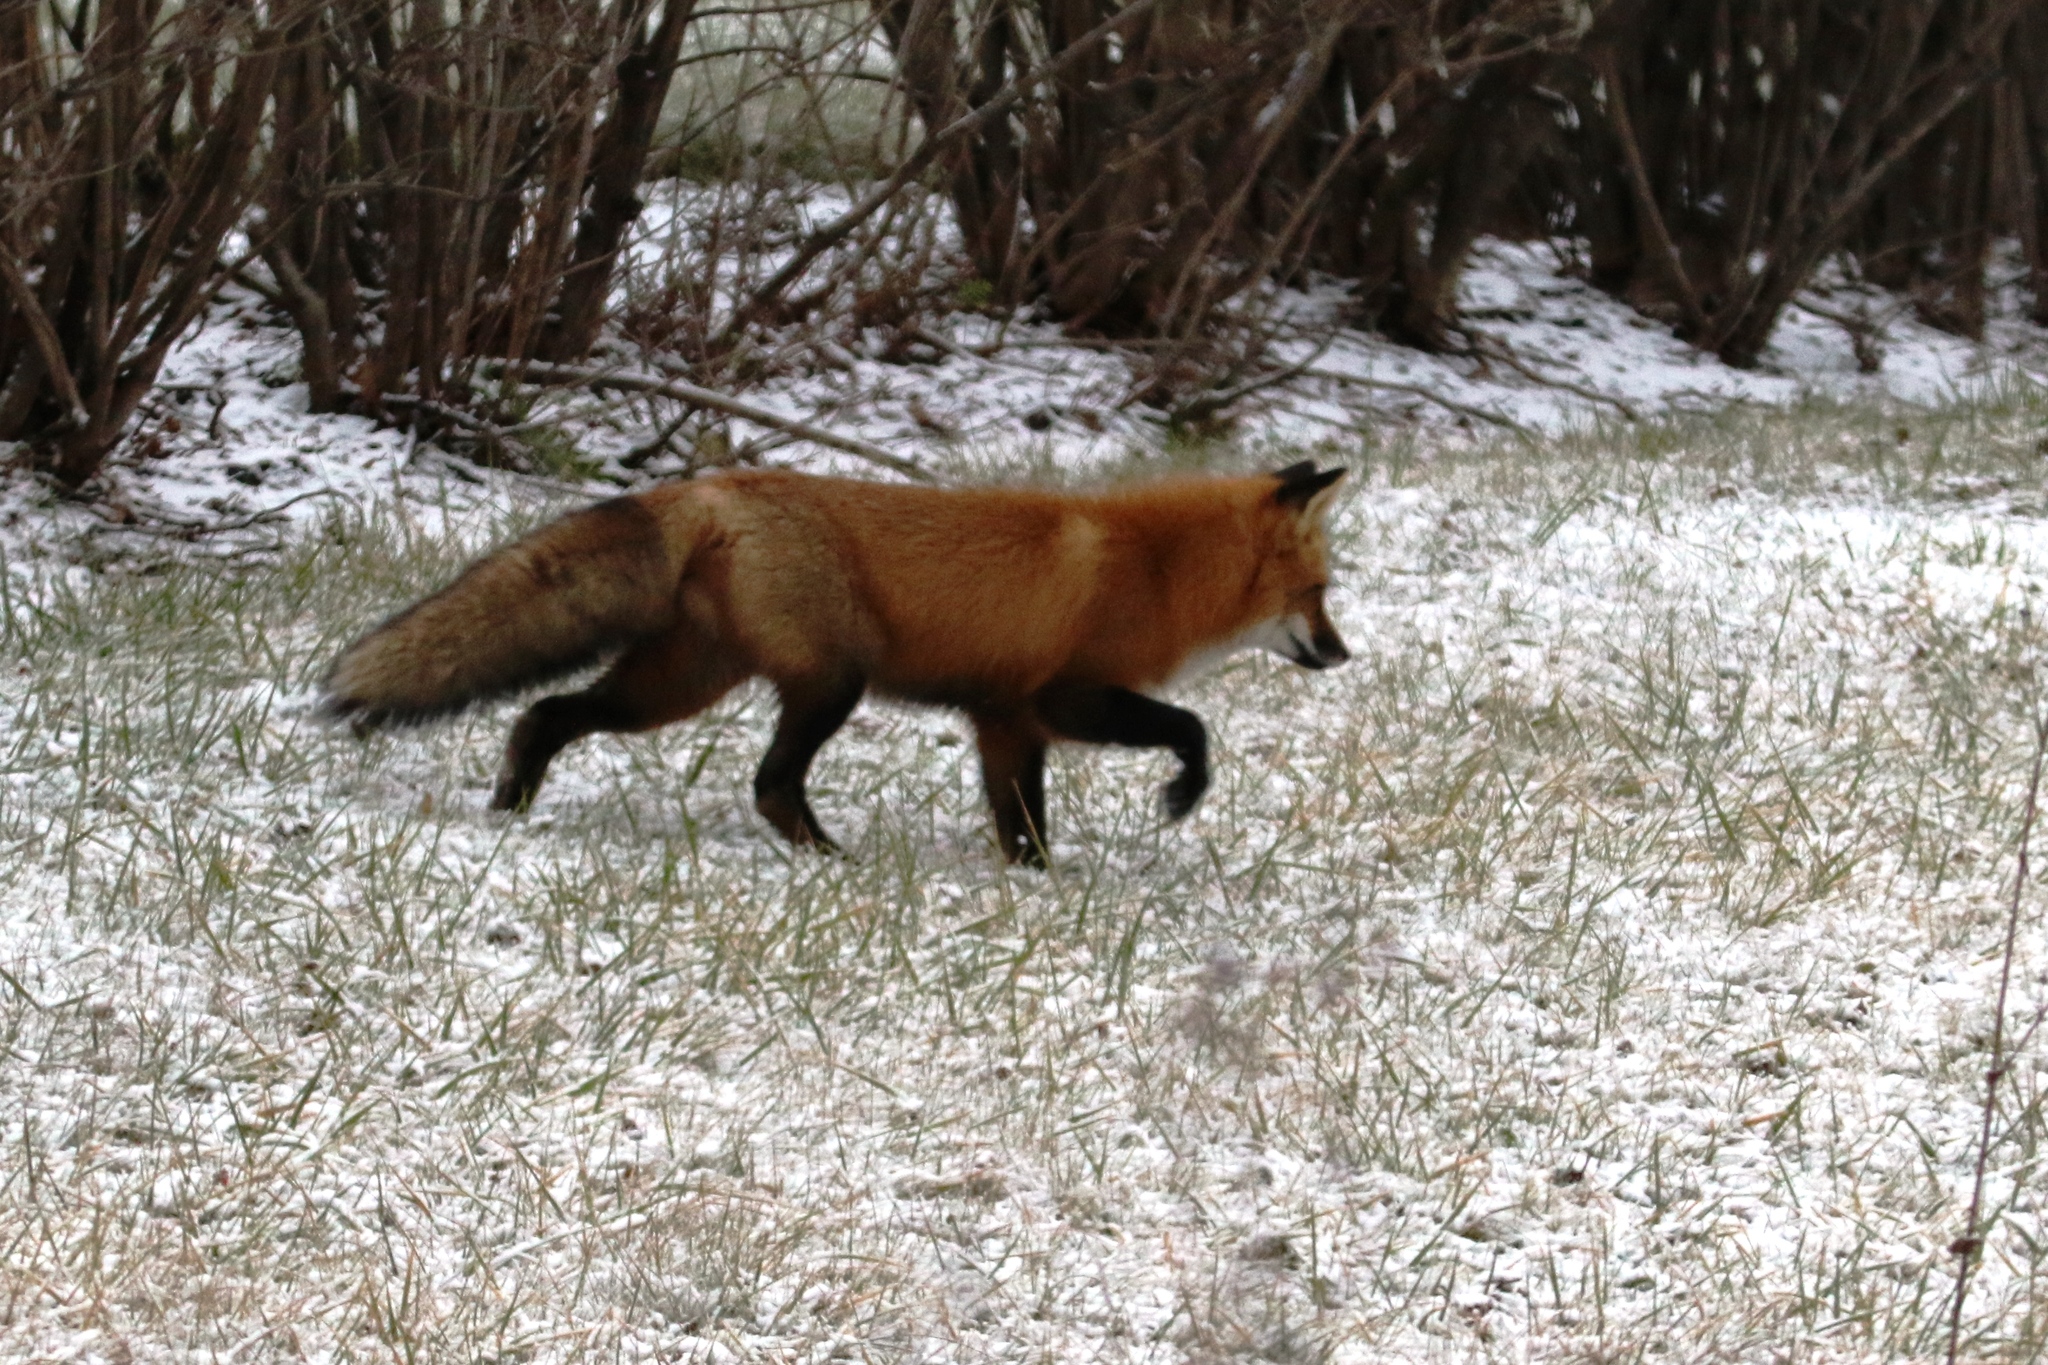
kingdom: Animalia
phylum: Chordata
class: Mammalia
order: Carnivora
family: Canidae
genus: Vulpes
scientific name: Vulpes vulpes
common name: Red fox
